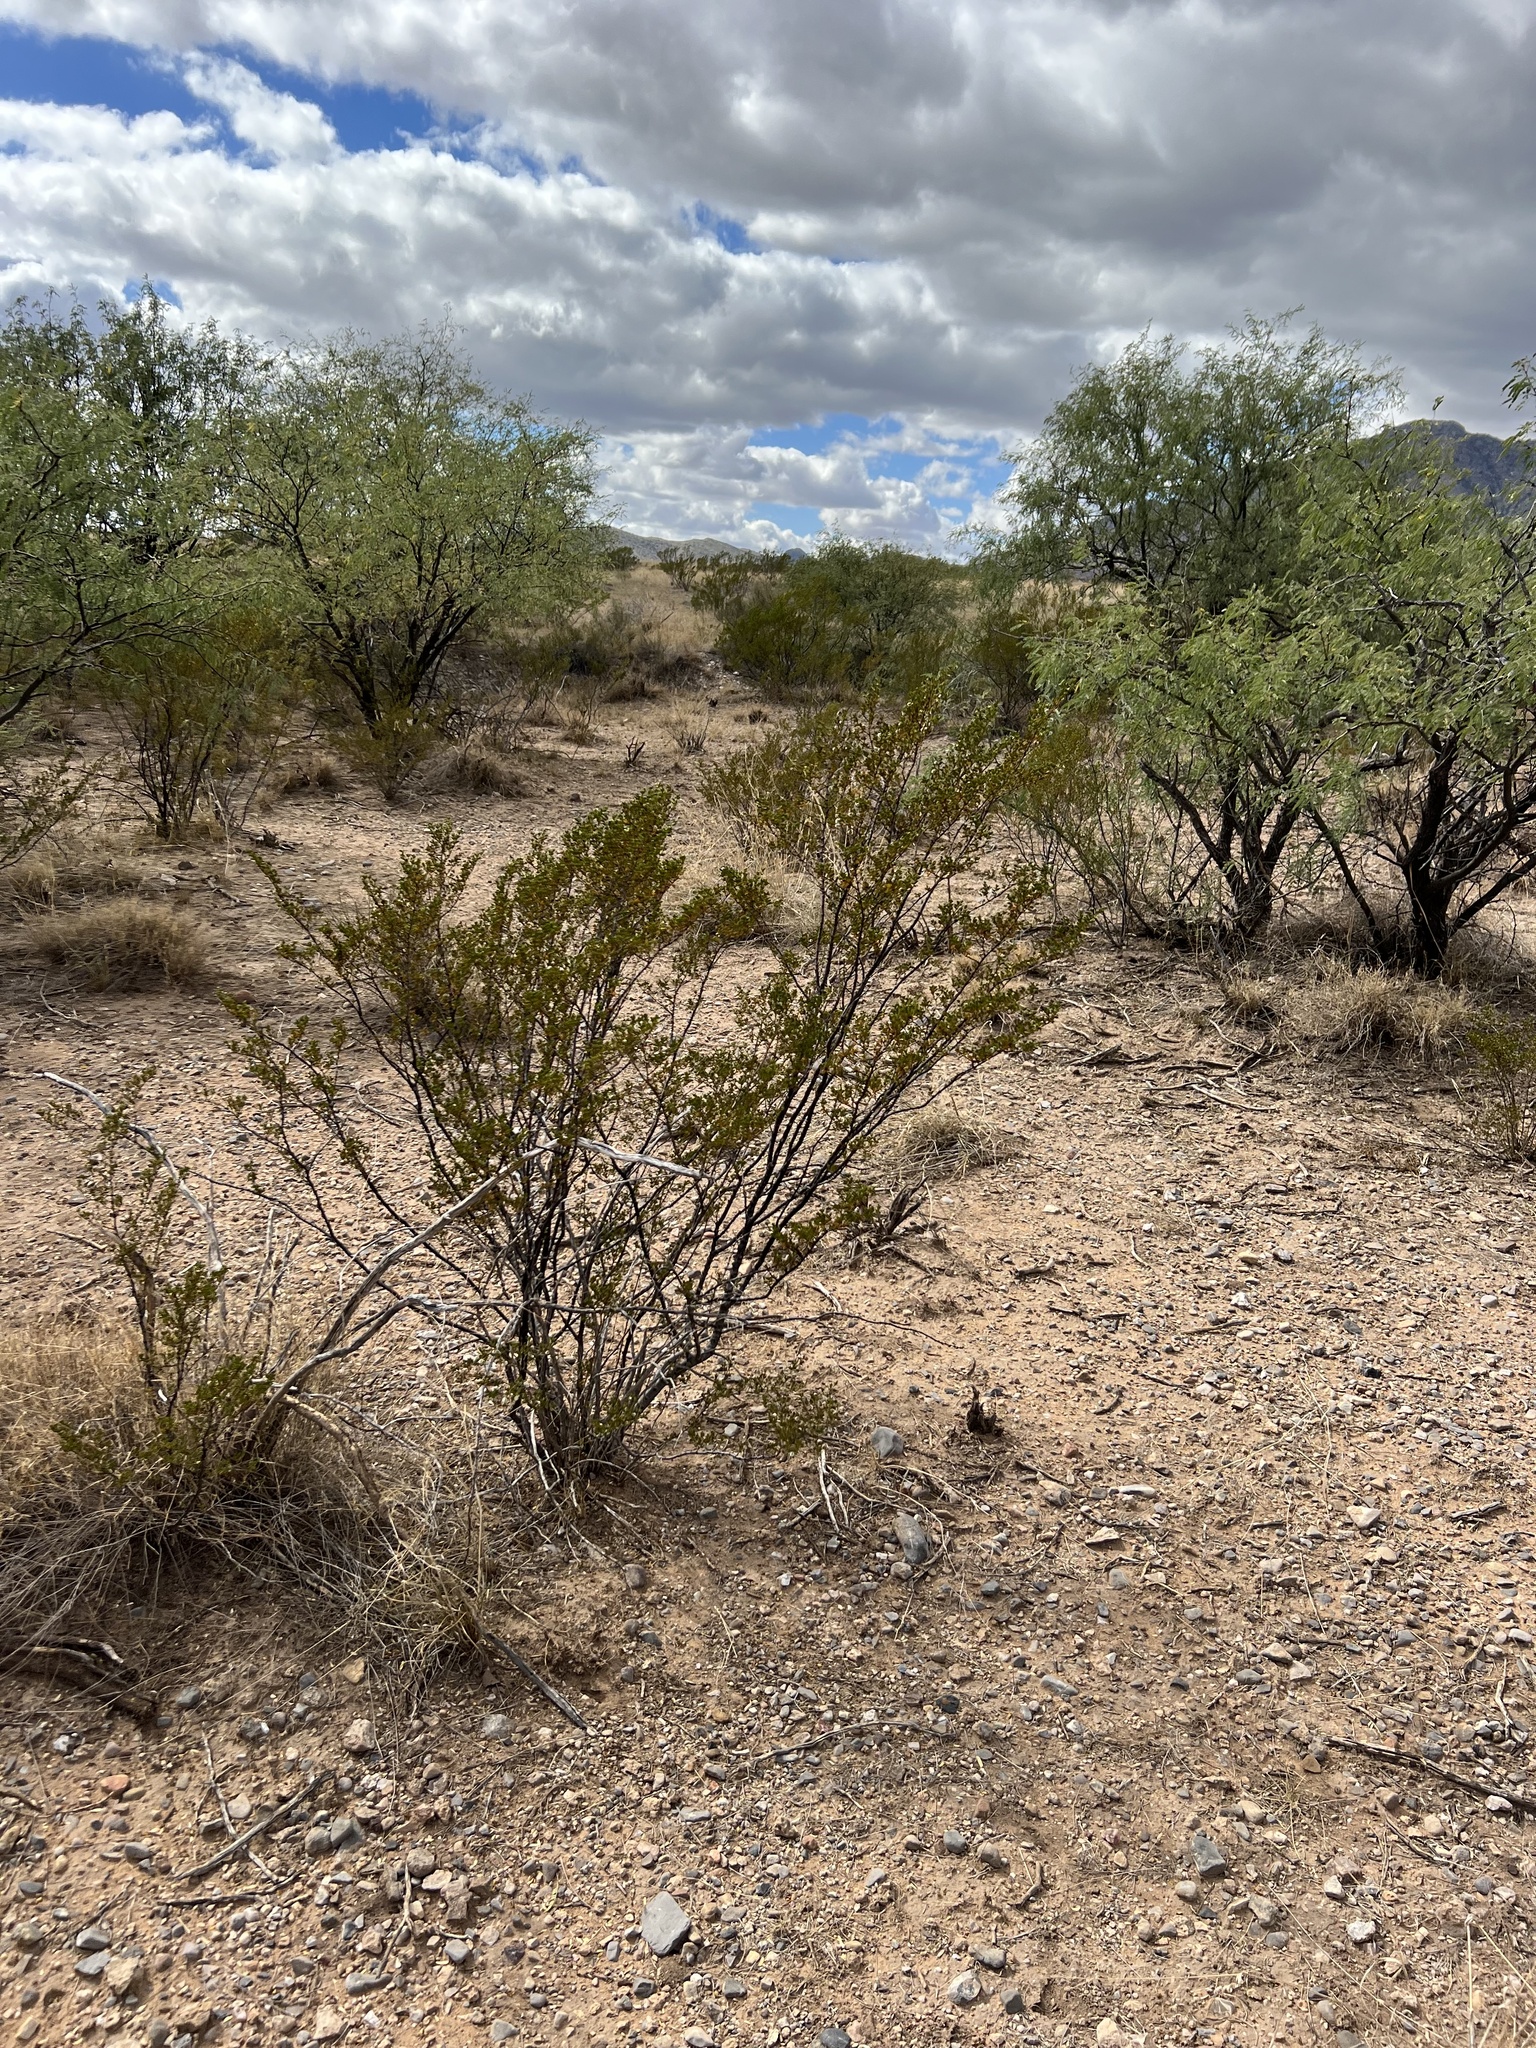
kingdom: Plantae
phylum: Tracheophyta
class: Magnoliopsida
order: Zygophyllales
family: Zygophyllaceae
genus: Larrea
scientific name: Larrea tridentata
